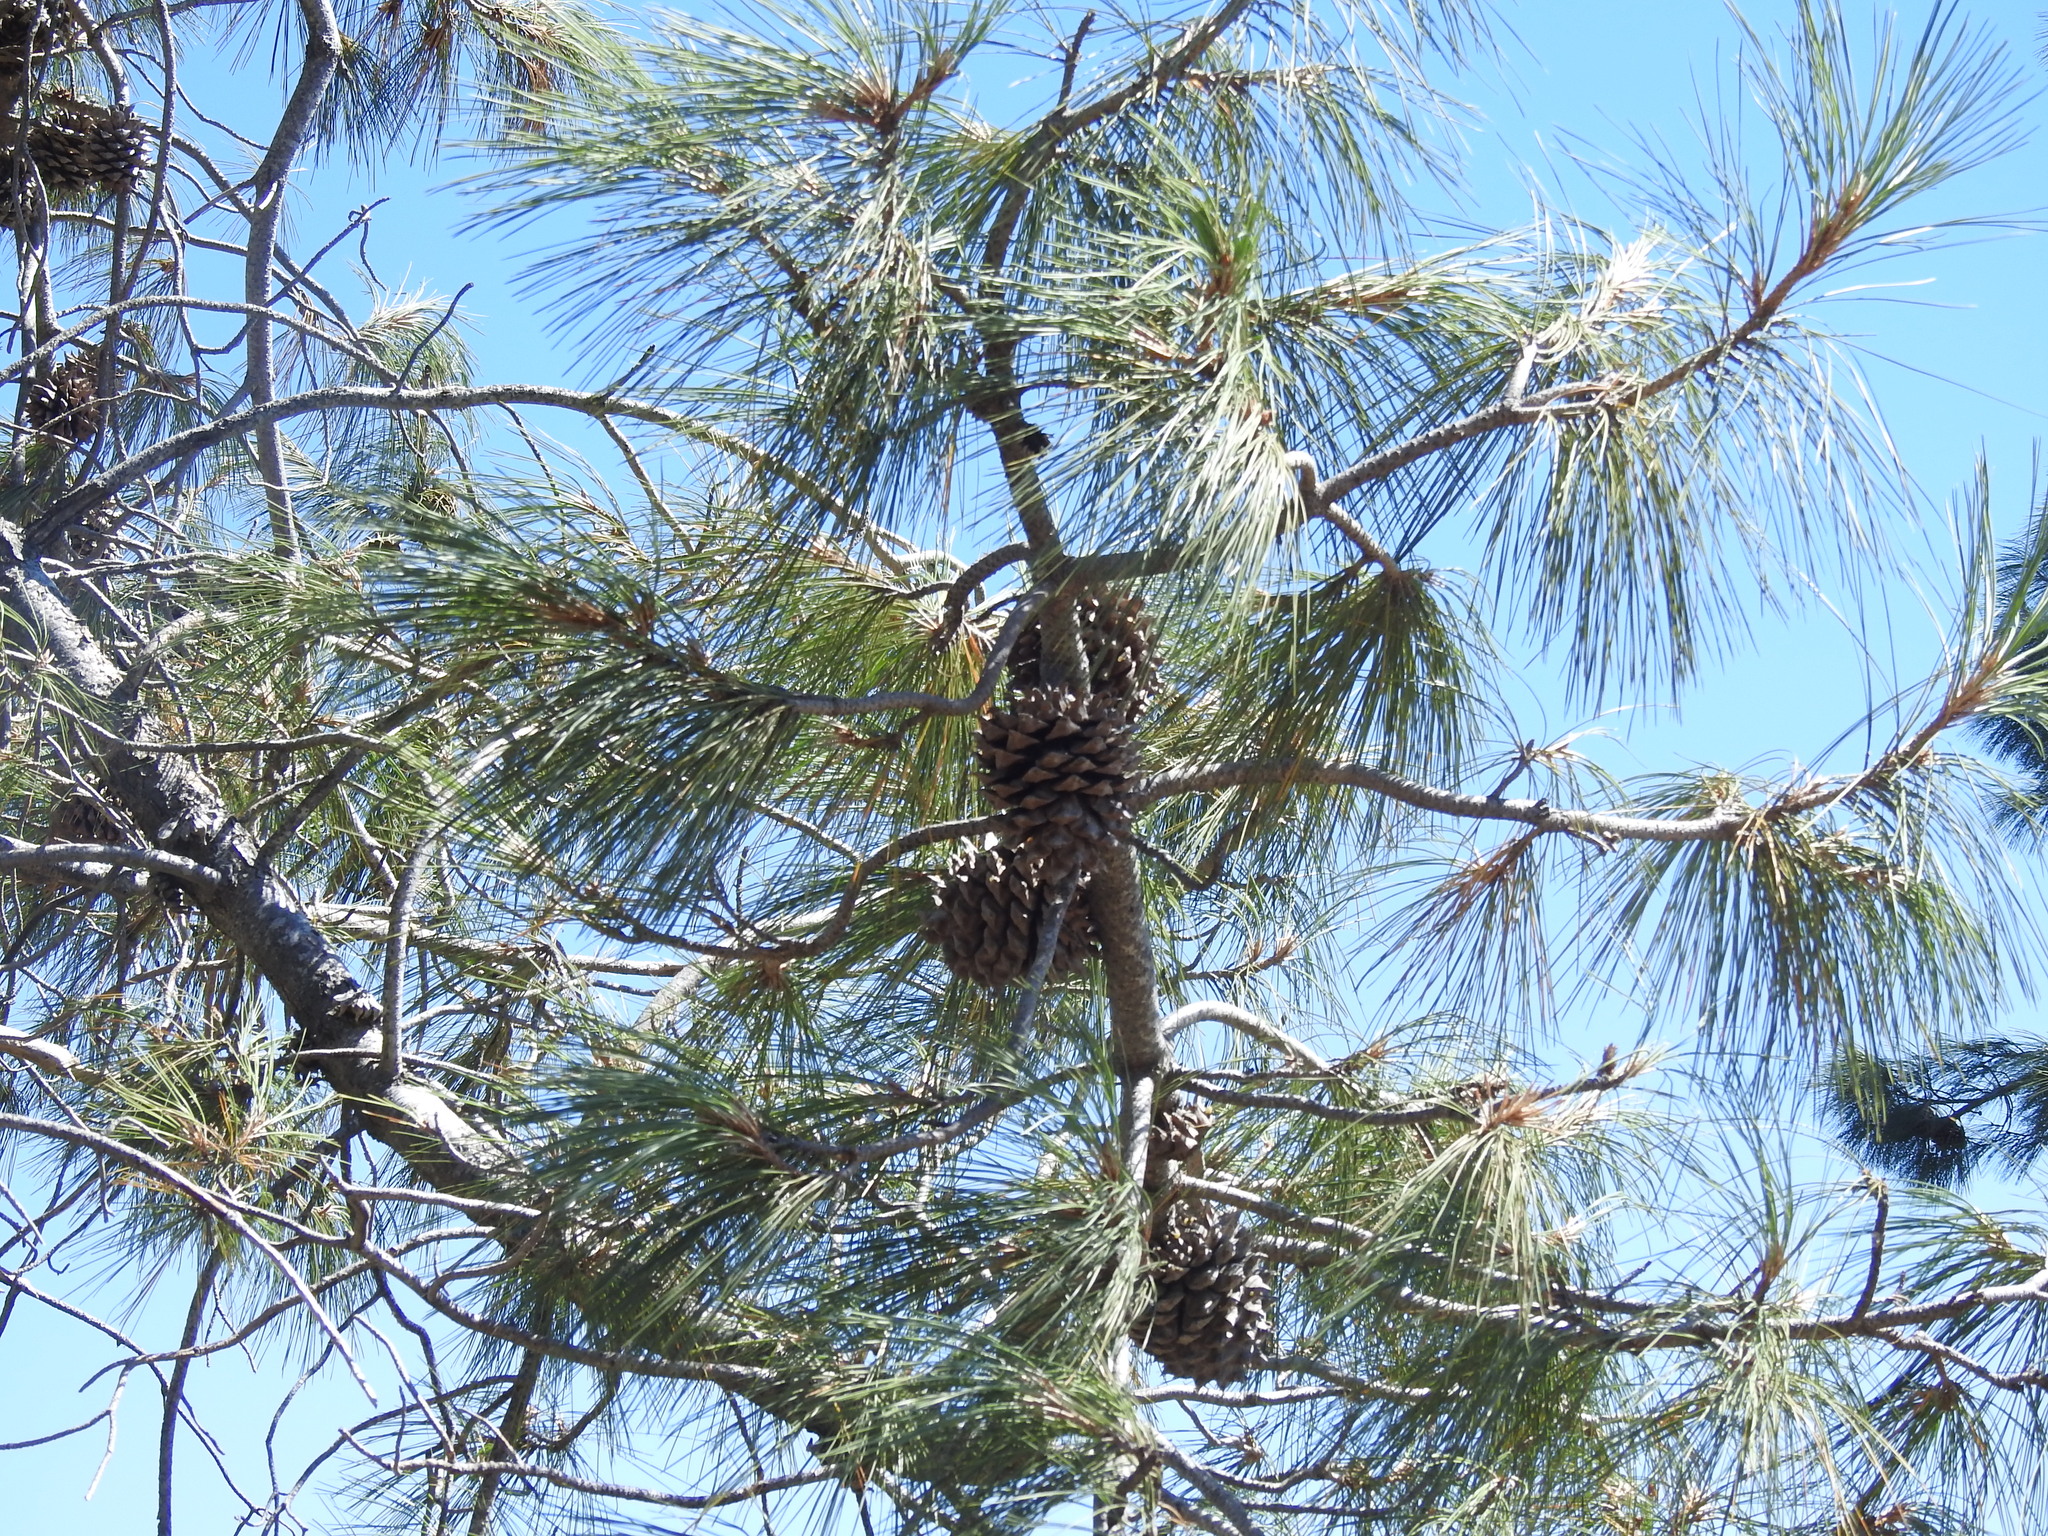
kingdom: Plantae
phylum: Tracheophyta
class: Pinopsida
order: Pinales
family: Pinaceae
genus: Pinus
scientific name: Pinus sabiniana
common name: Bull pine
